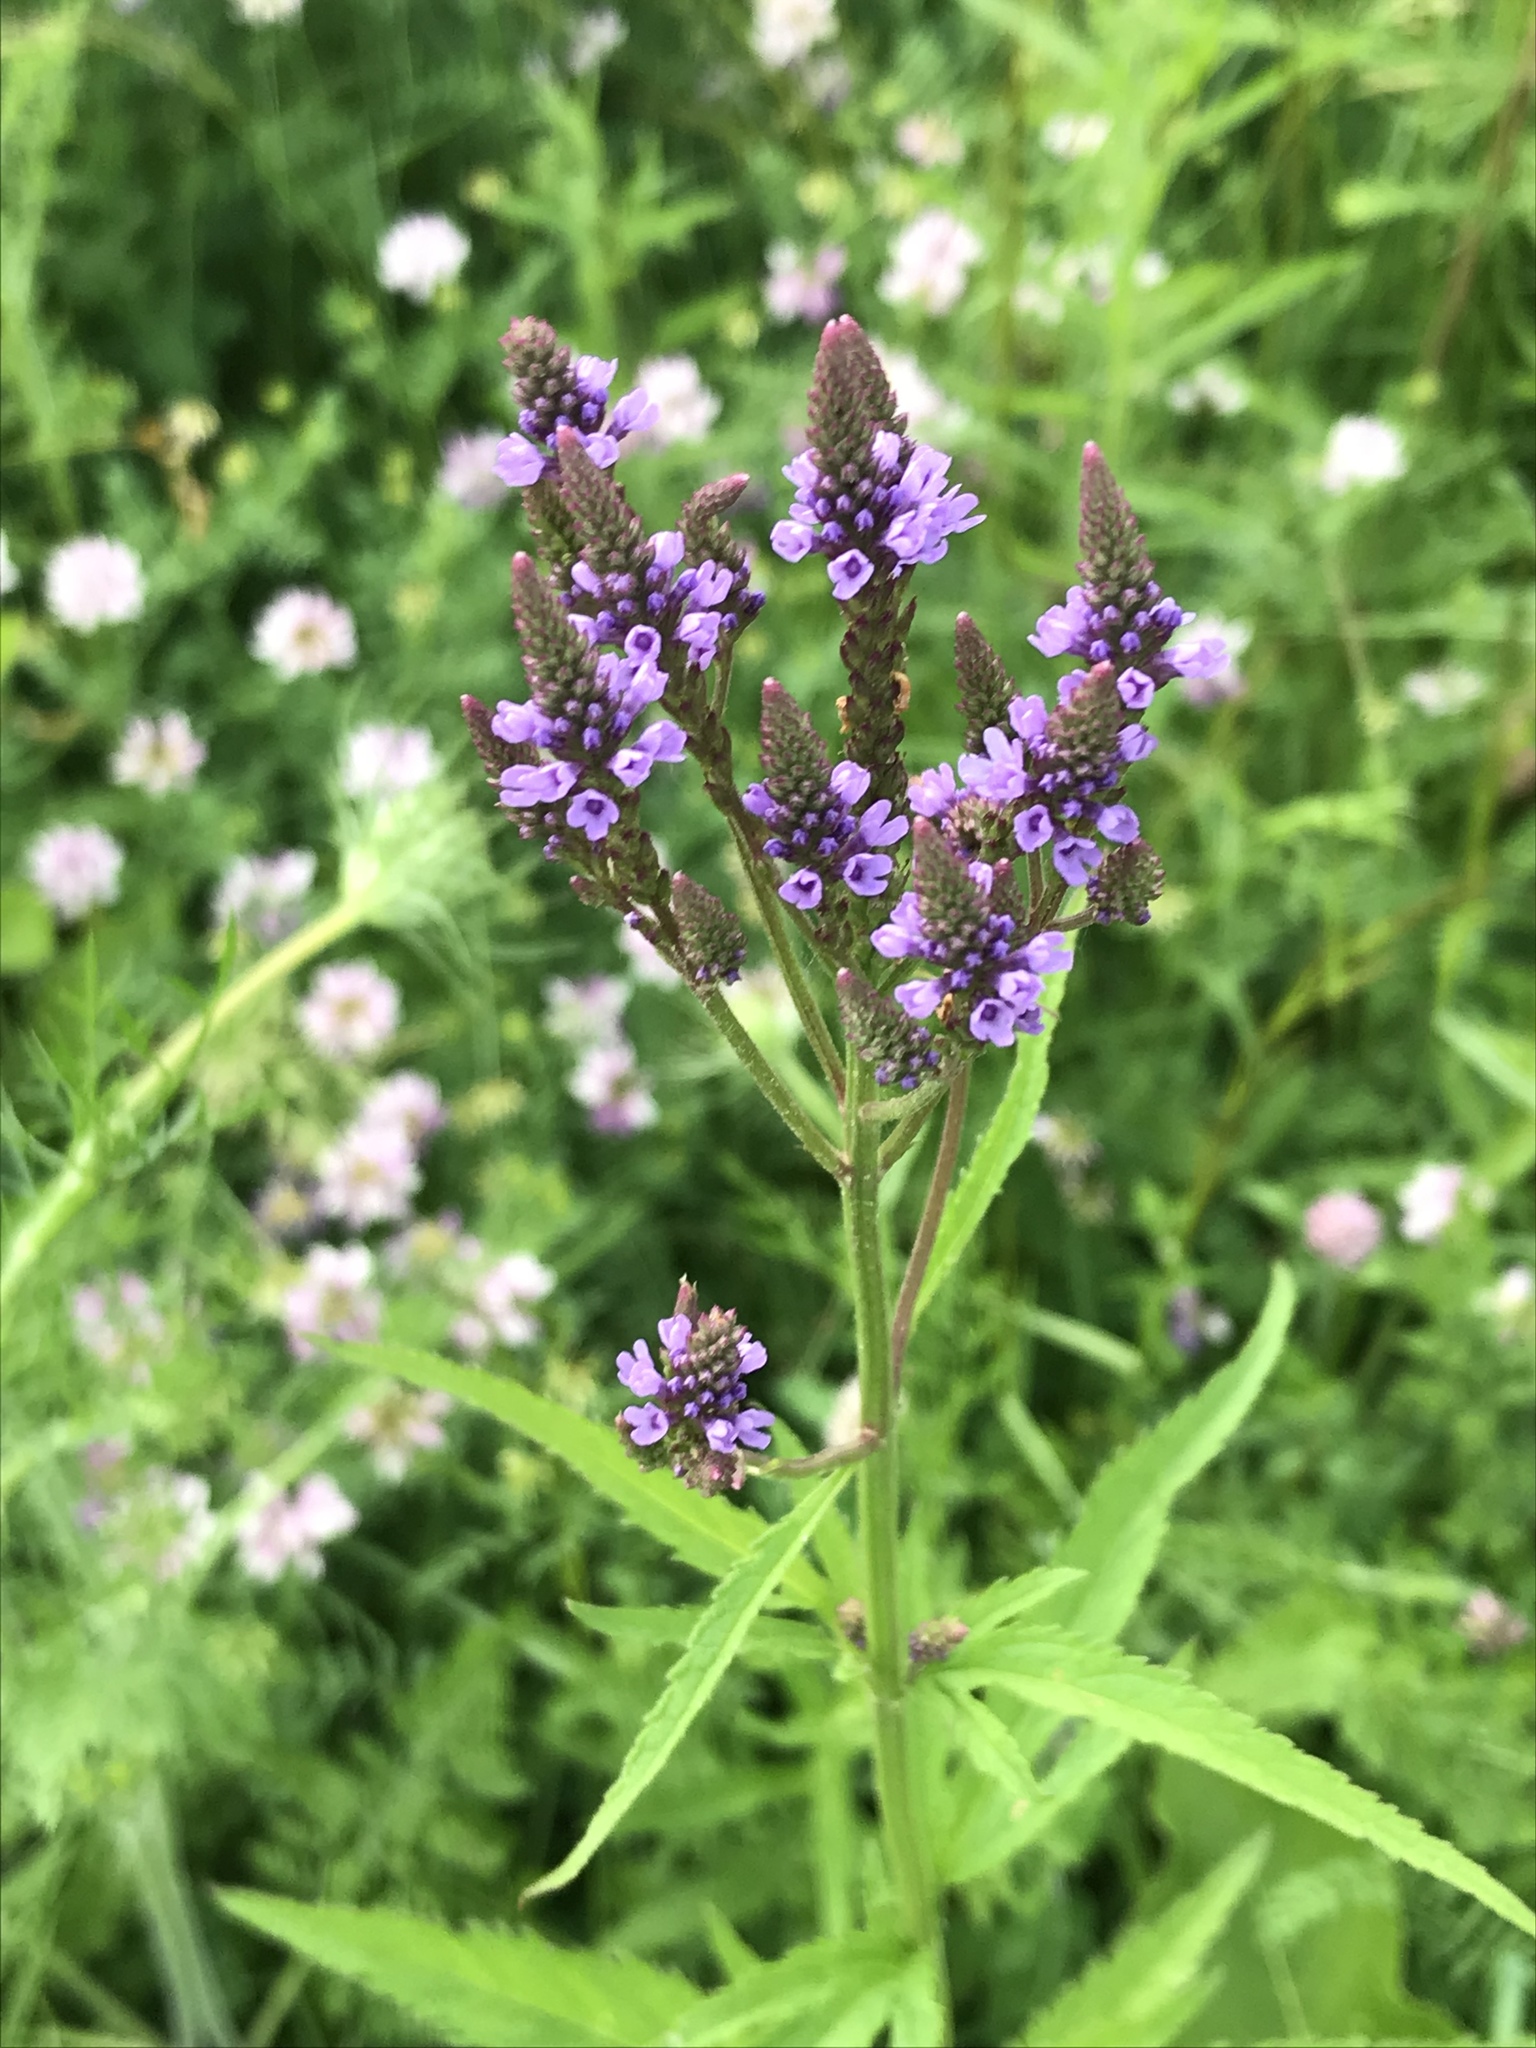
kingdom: Plantae
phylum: Tracheophyta
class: Magnoliopsida
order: Lamiales
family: Verbenaceae
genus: Verbena
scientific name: Verbena hastata
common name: American blue vervain
